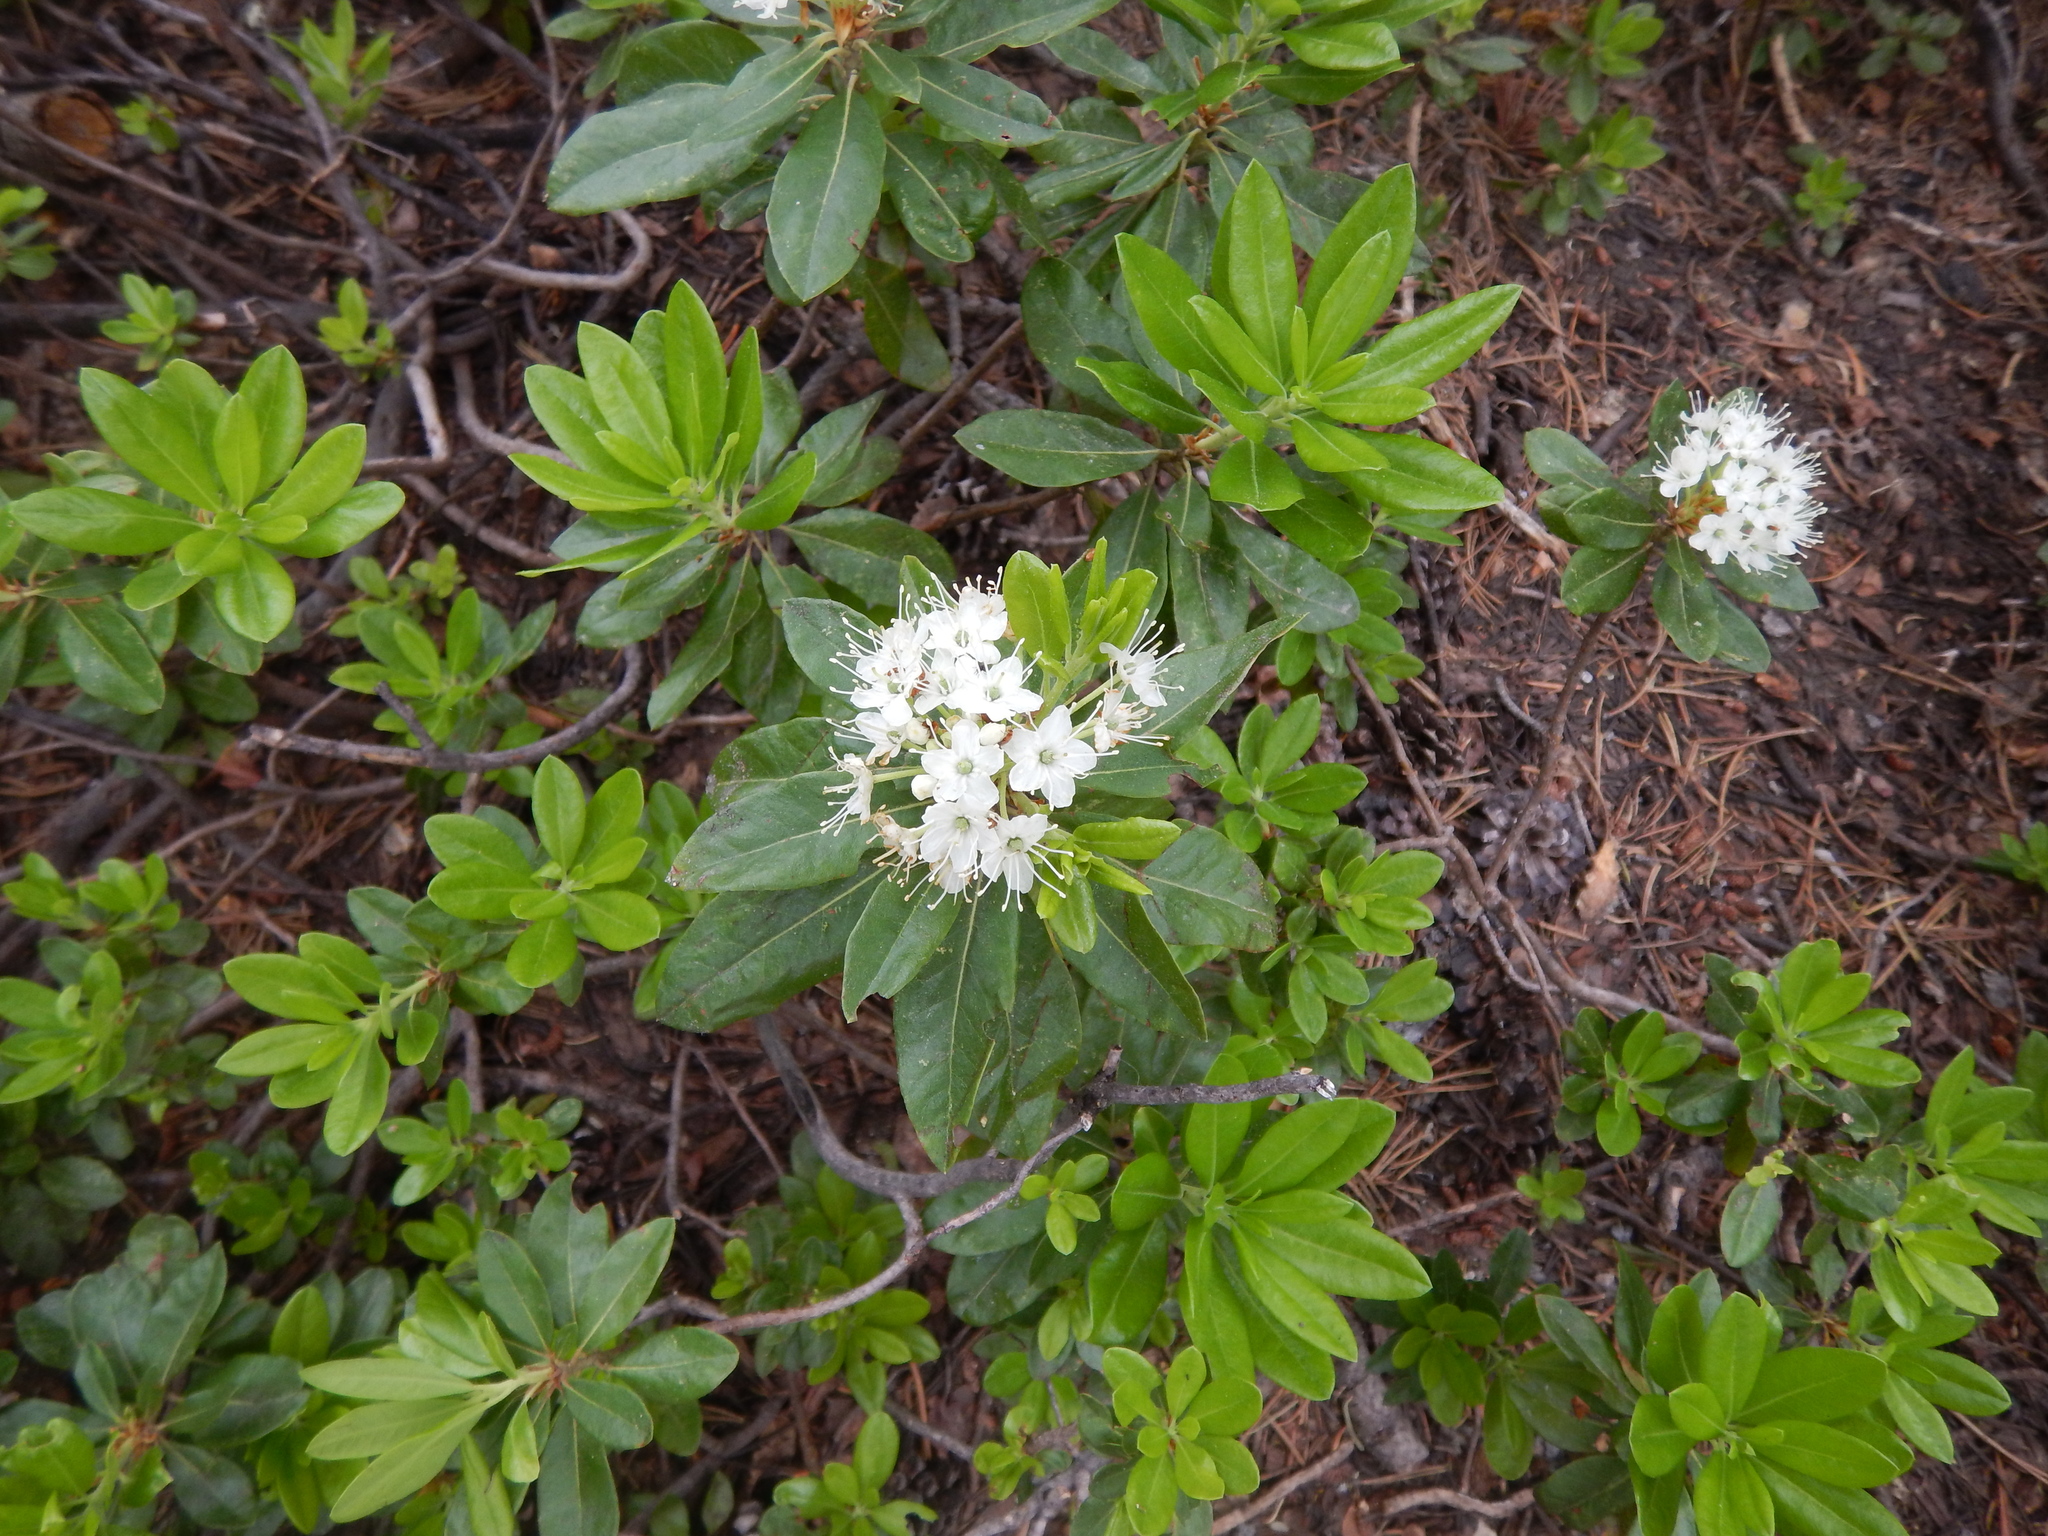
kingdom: Plantae
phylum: Tracheophyta
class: Magnoliopsida
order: Ericales
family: Ericaceae
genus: Rhododendron
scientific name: Rhododendron columbianum
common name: Western labrador tea
